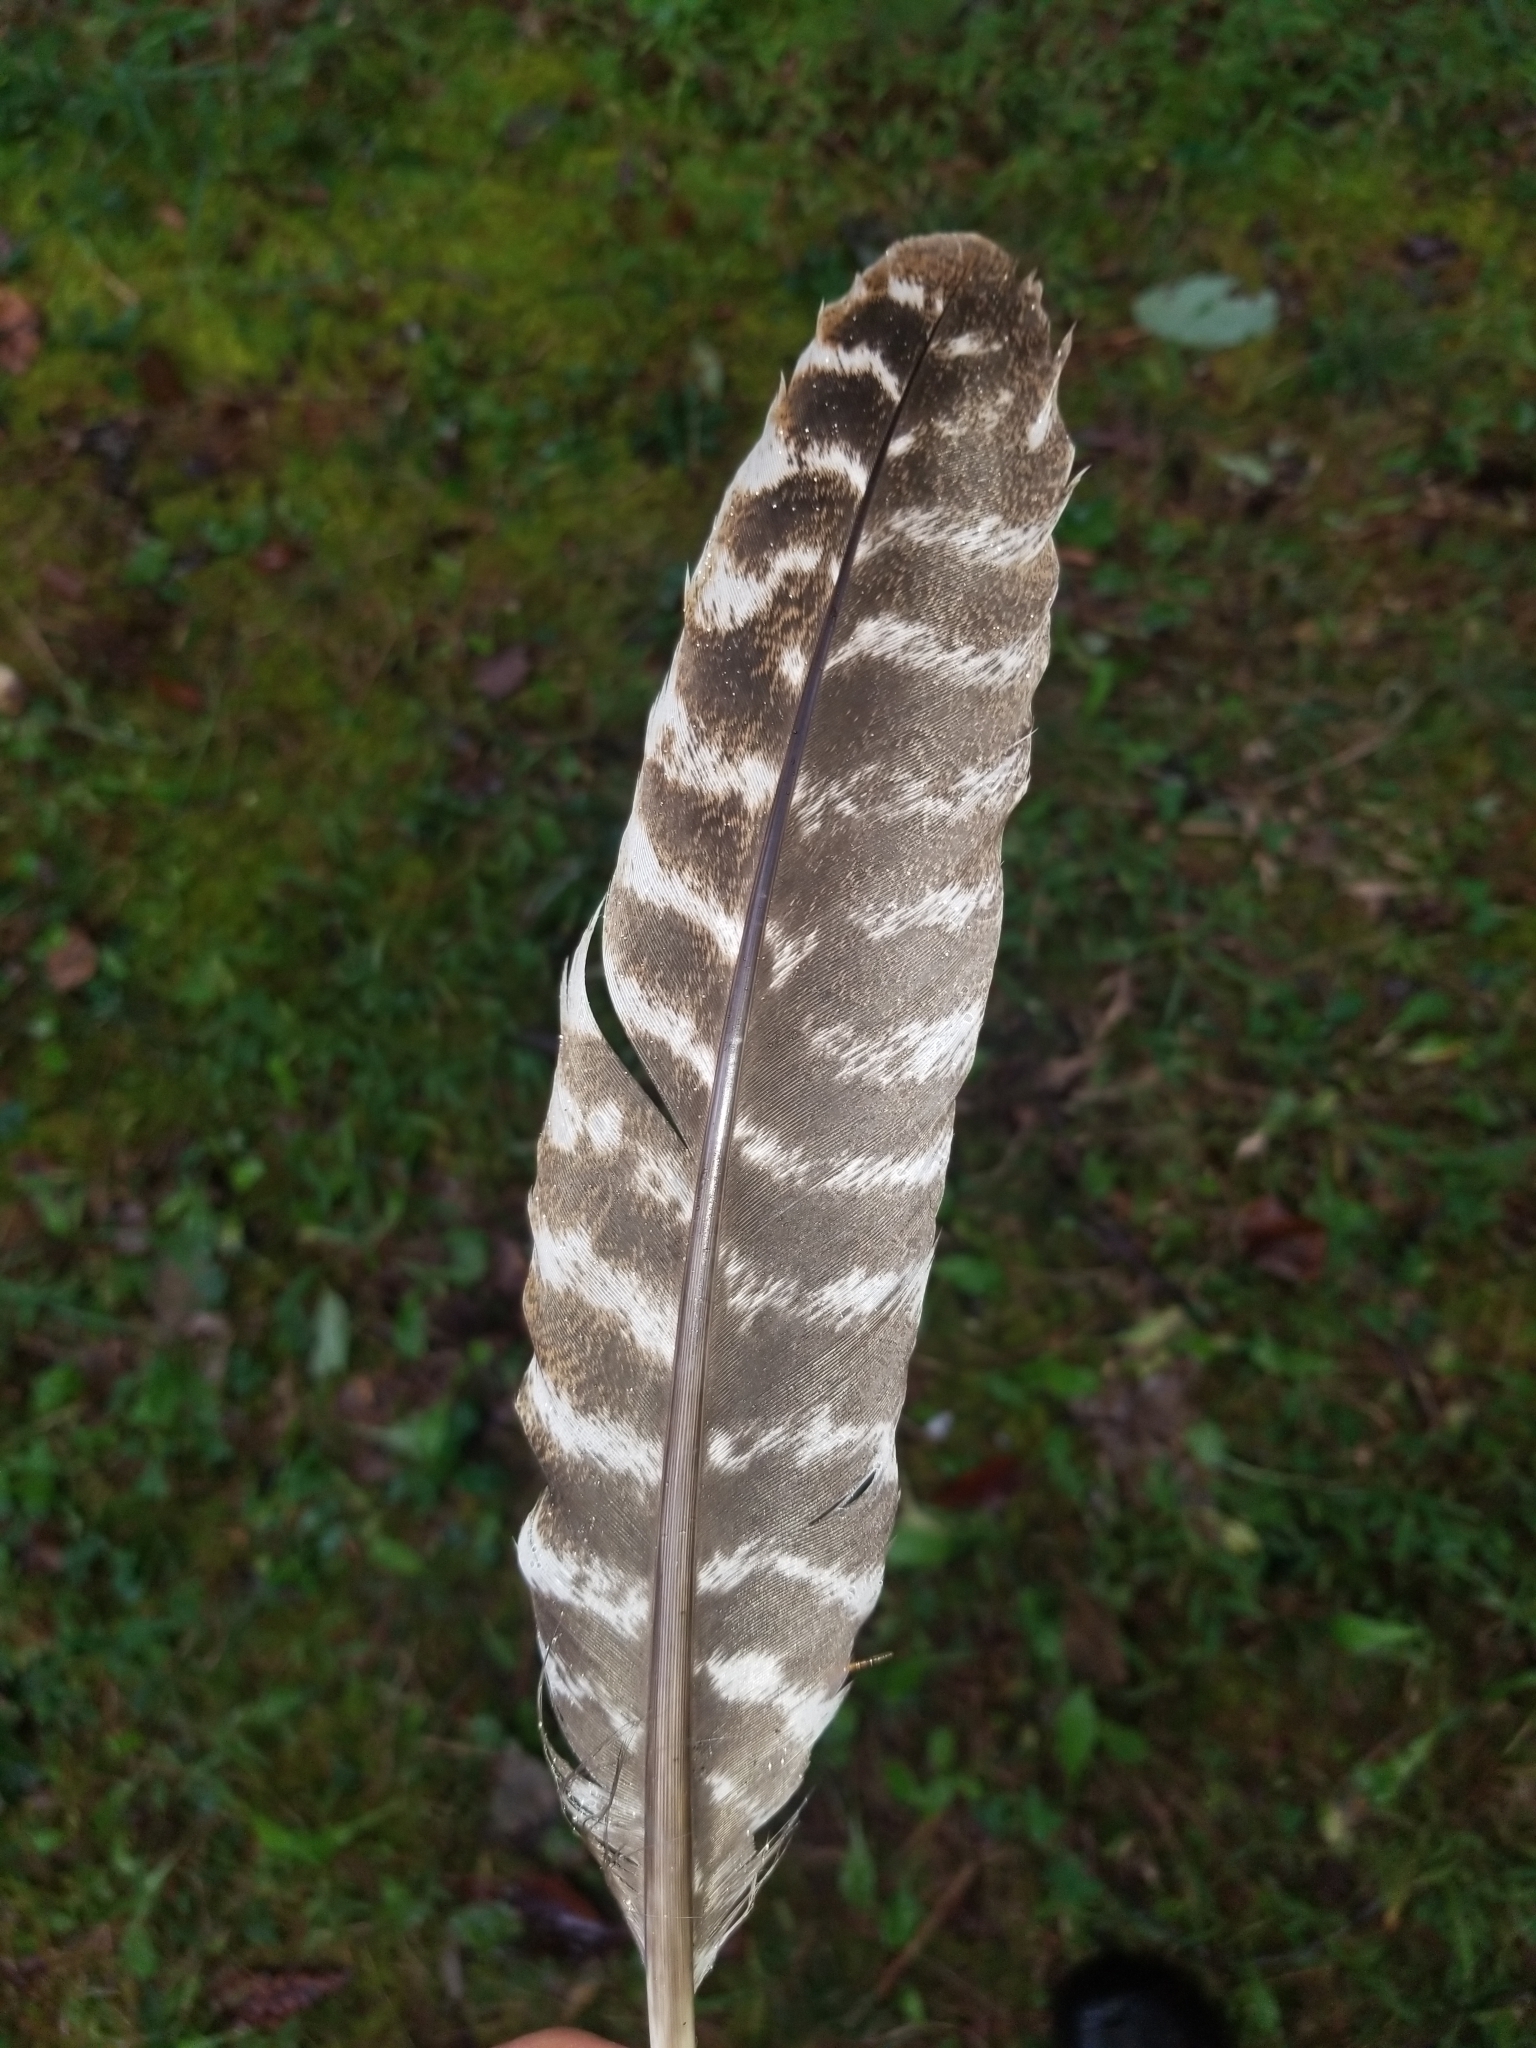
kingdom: Animalia
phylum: Chordata
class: Aves
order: Galliformes
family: Phasianidae
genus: Meleagris
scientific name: Meleagris gallopavo
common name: Wild turkey
